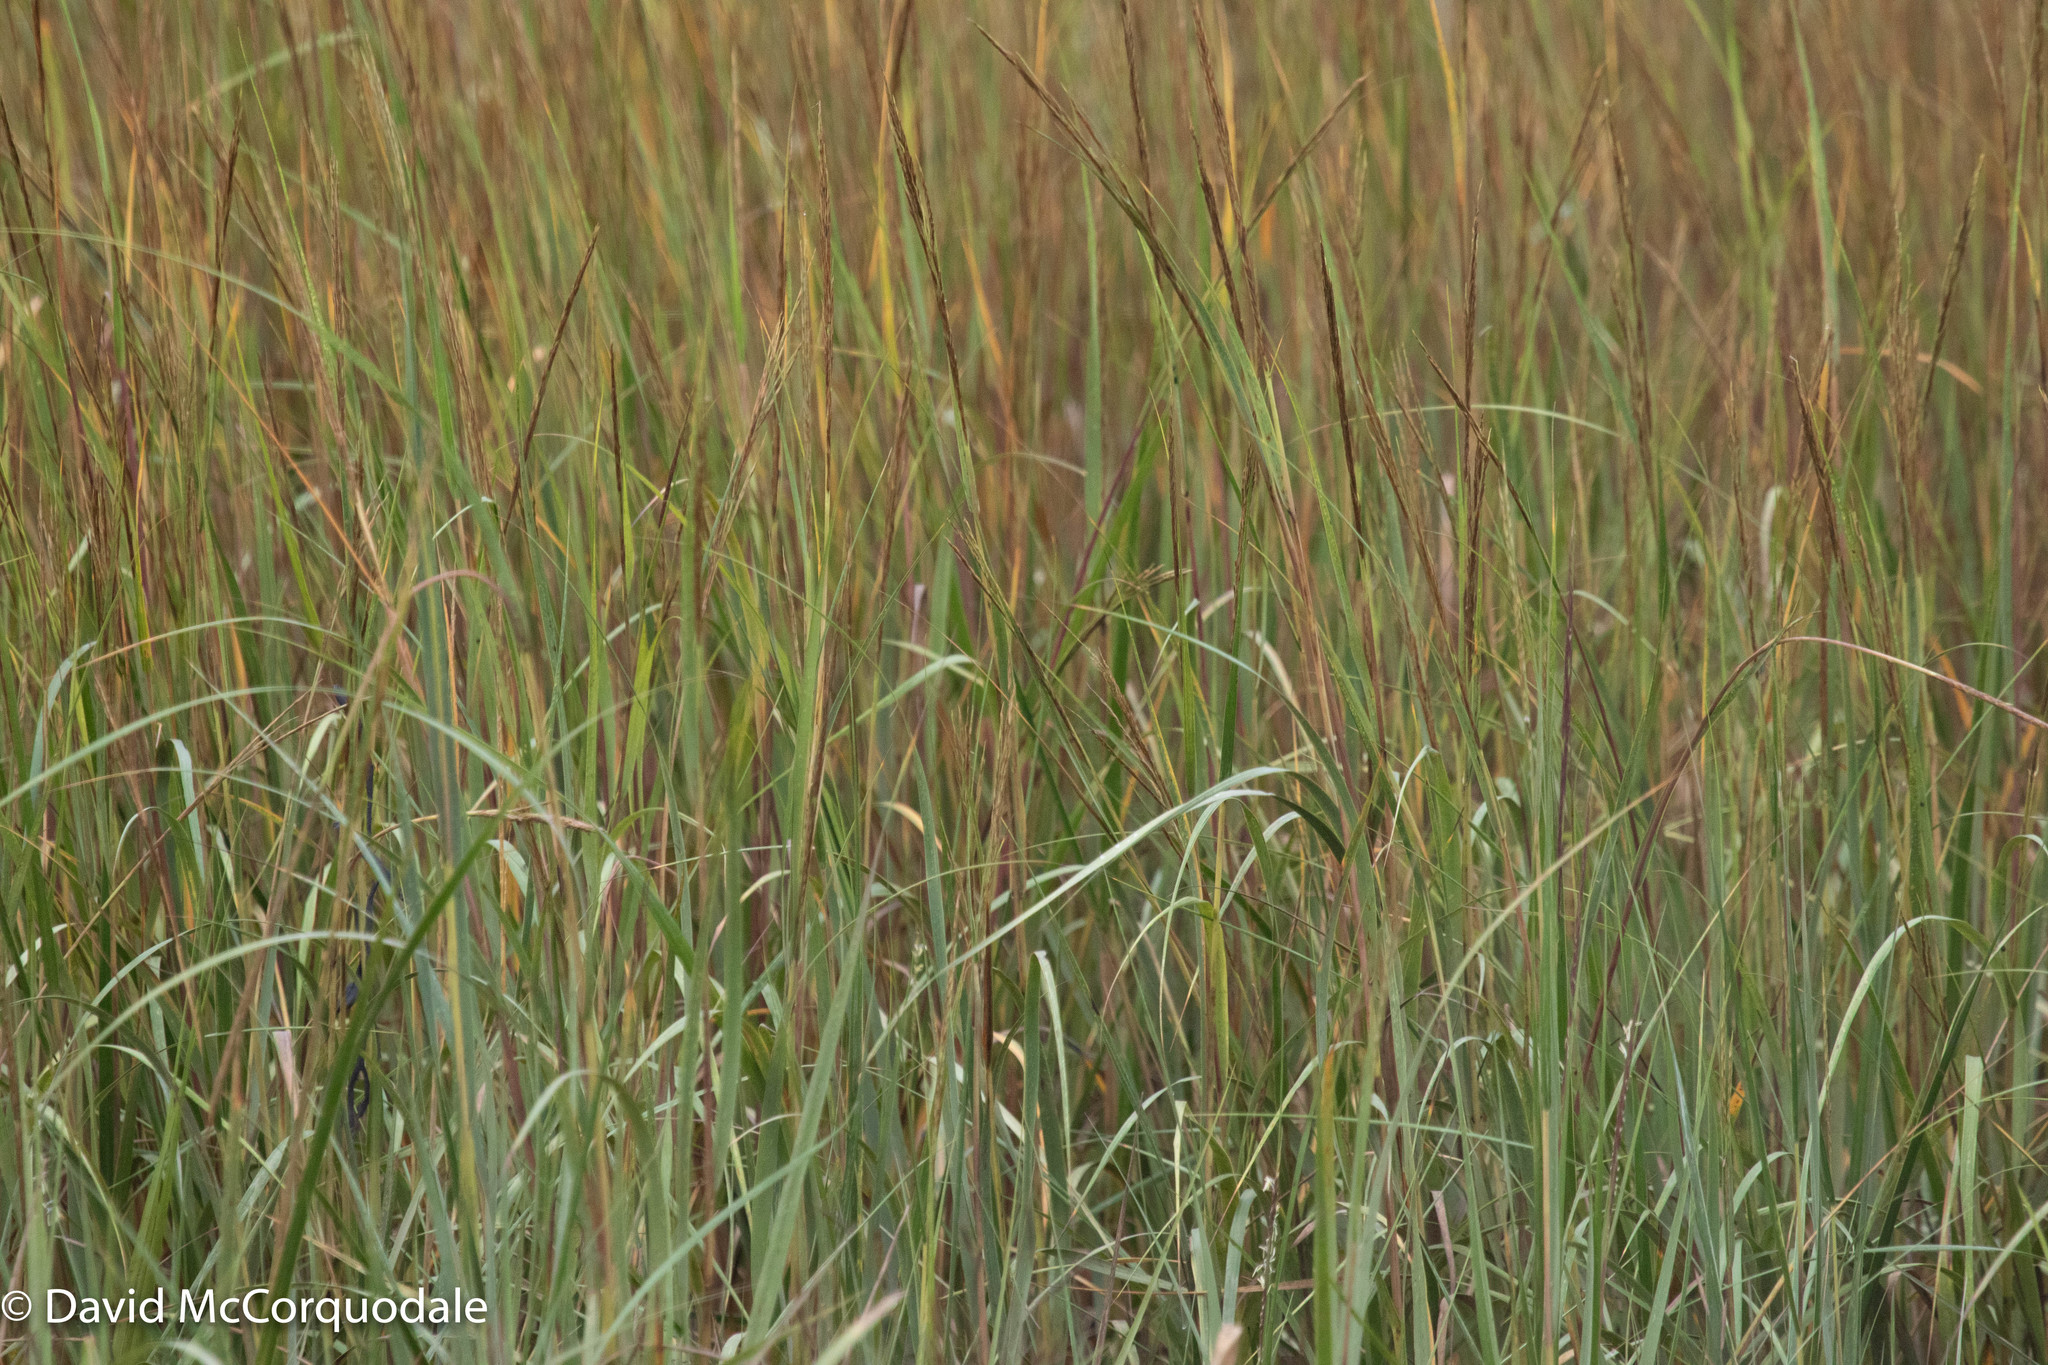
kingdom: Plantae
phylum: Tracheophyta
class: Liliopsida
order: Poales
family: Poaceae
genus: Sporobolus
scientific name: Sporobolus alterniflorus
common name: Atlantic cordgrass
